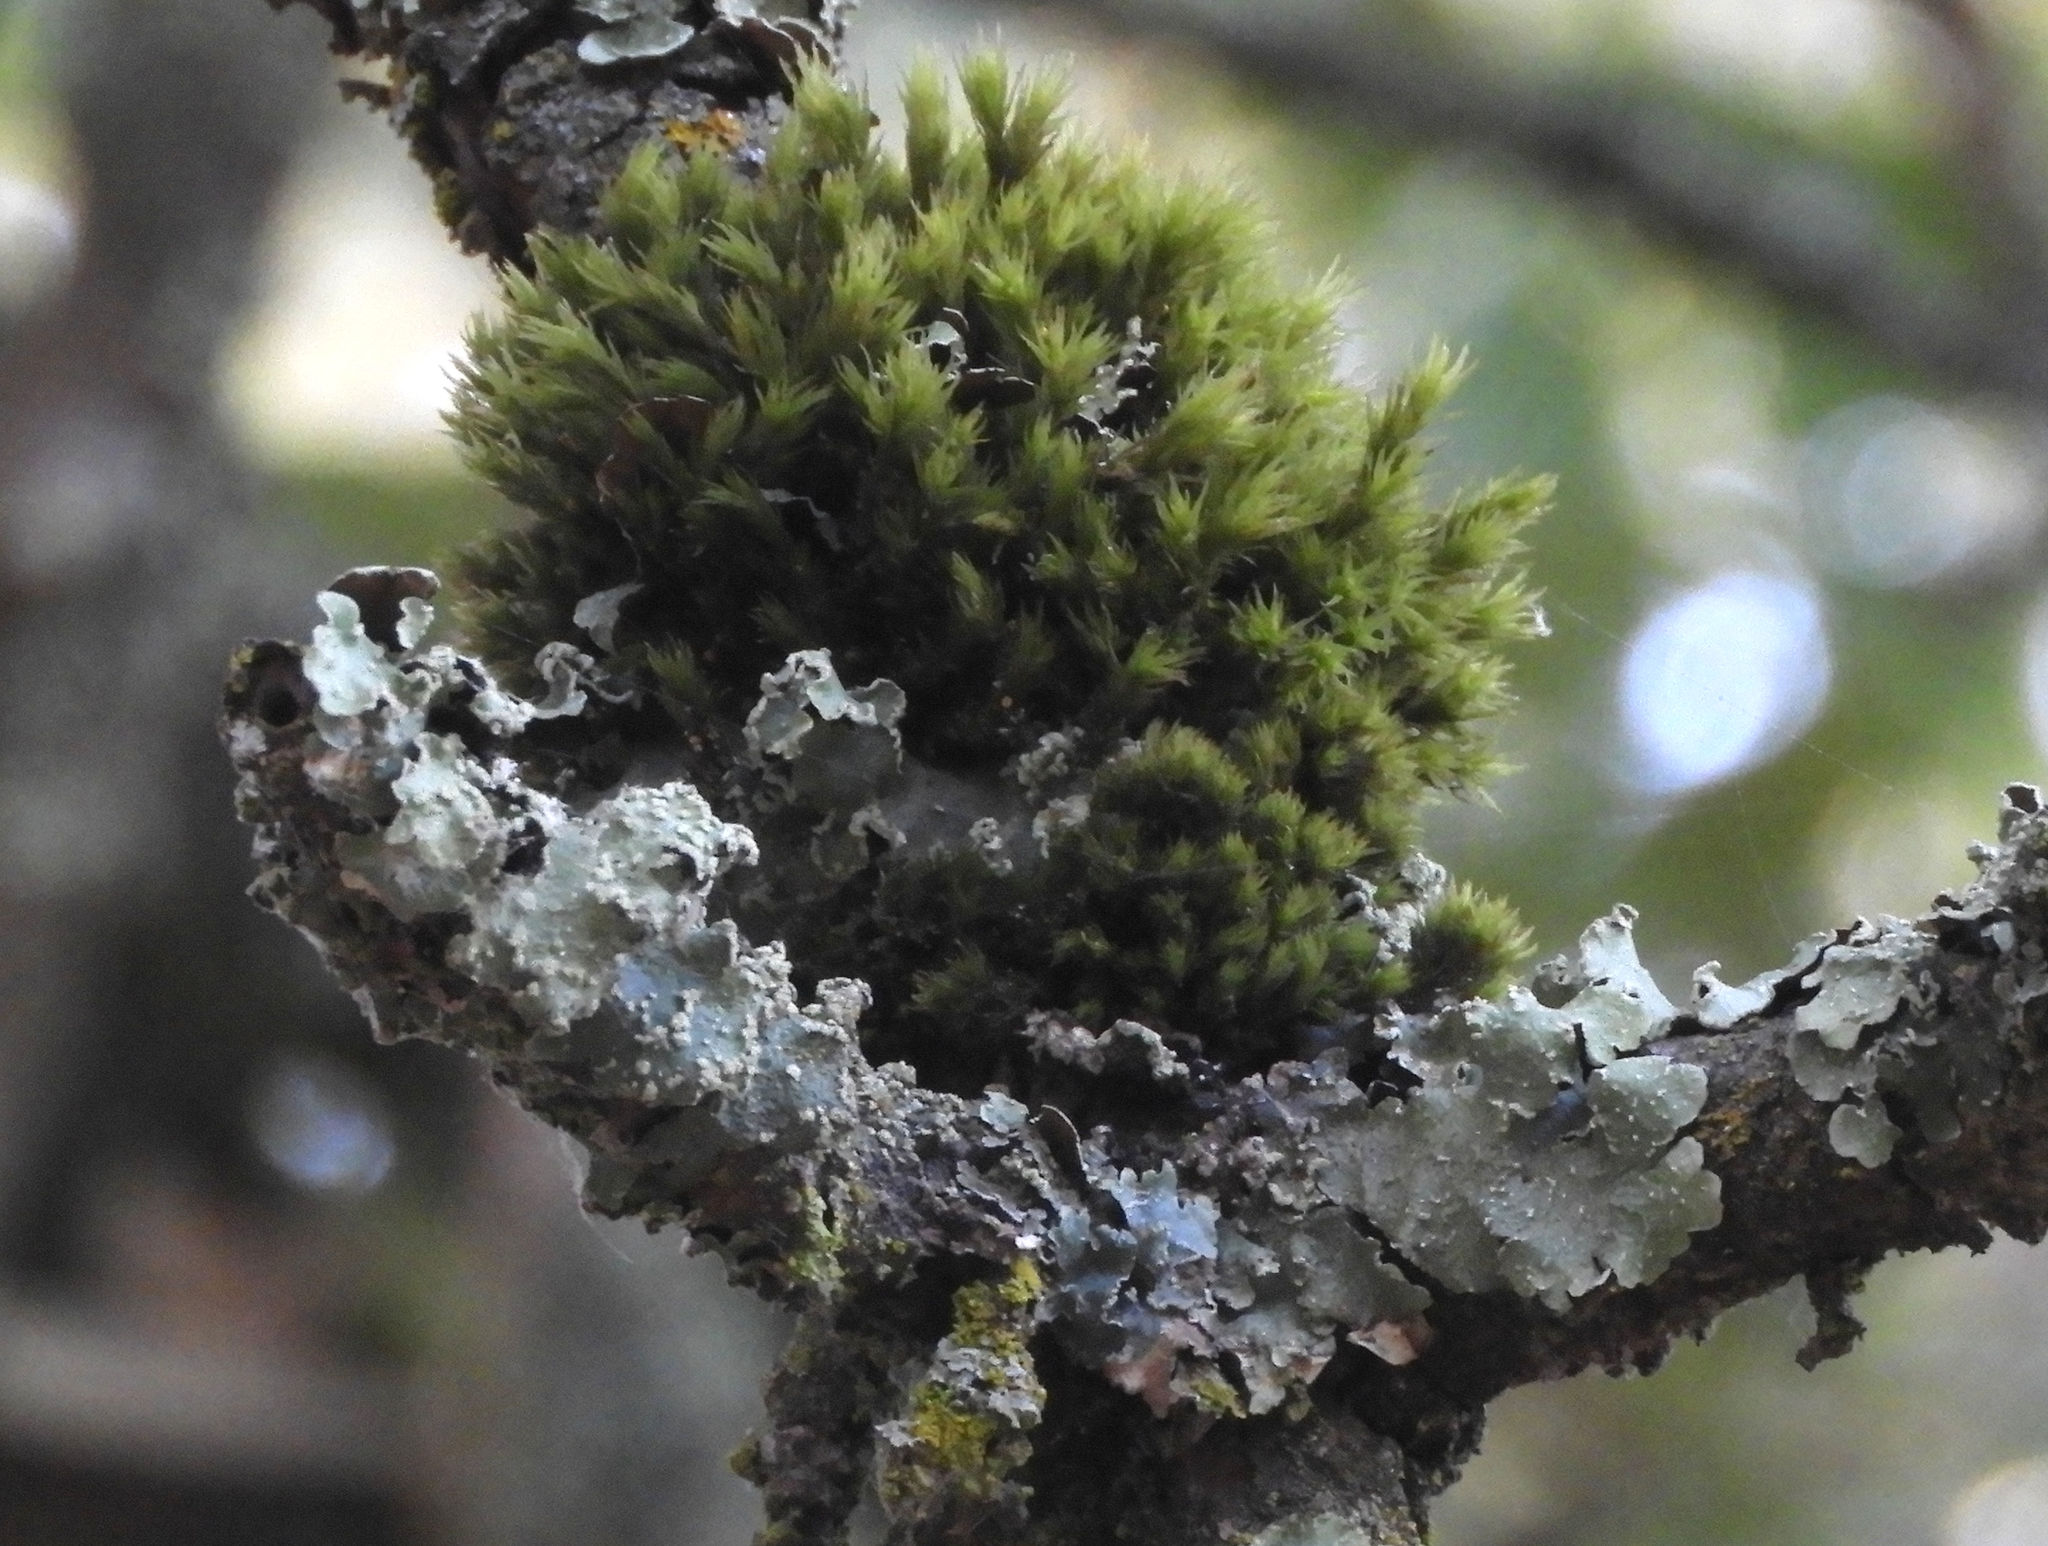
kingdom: Plantae
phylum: Bryophyta
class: Bryopsida
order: Orthotrichales
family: Orthotrichaceae
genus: Ulota
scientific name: Ulota crispa
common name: Crisped pincushion moss
